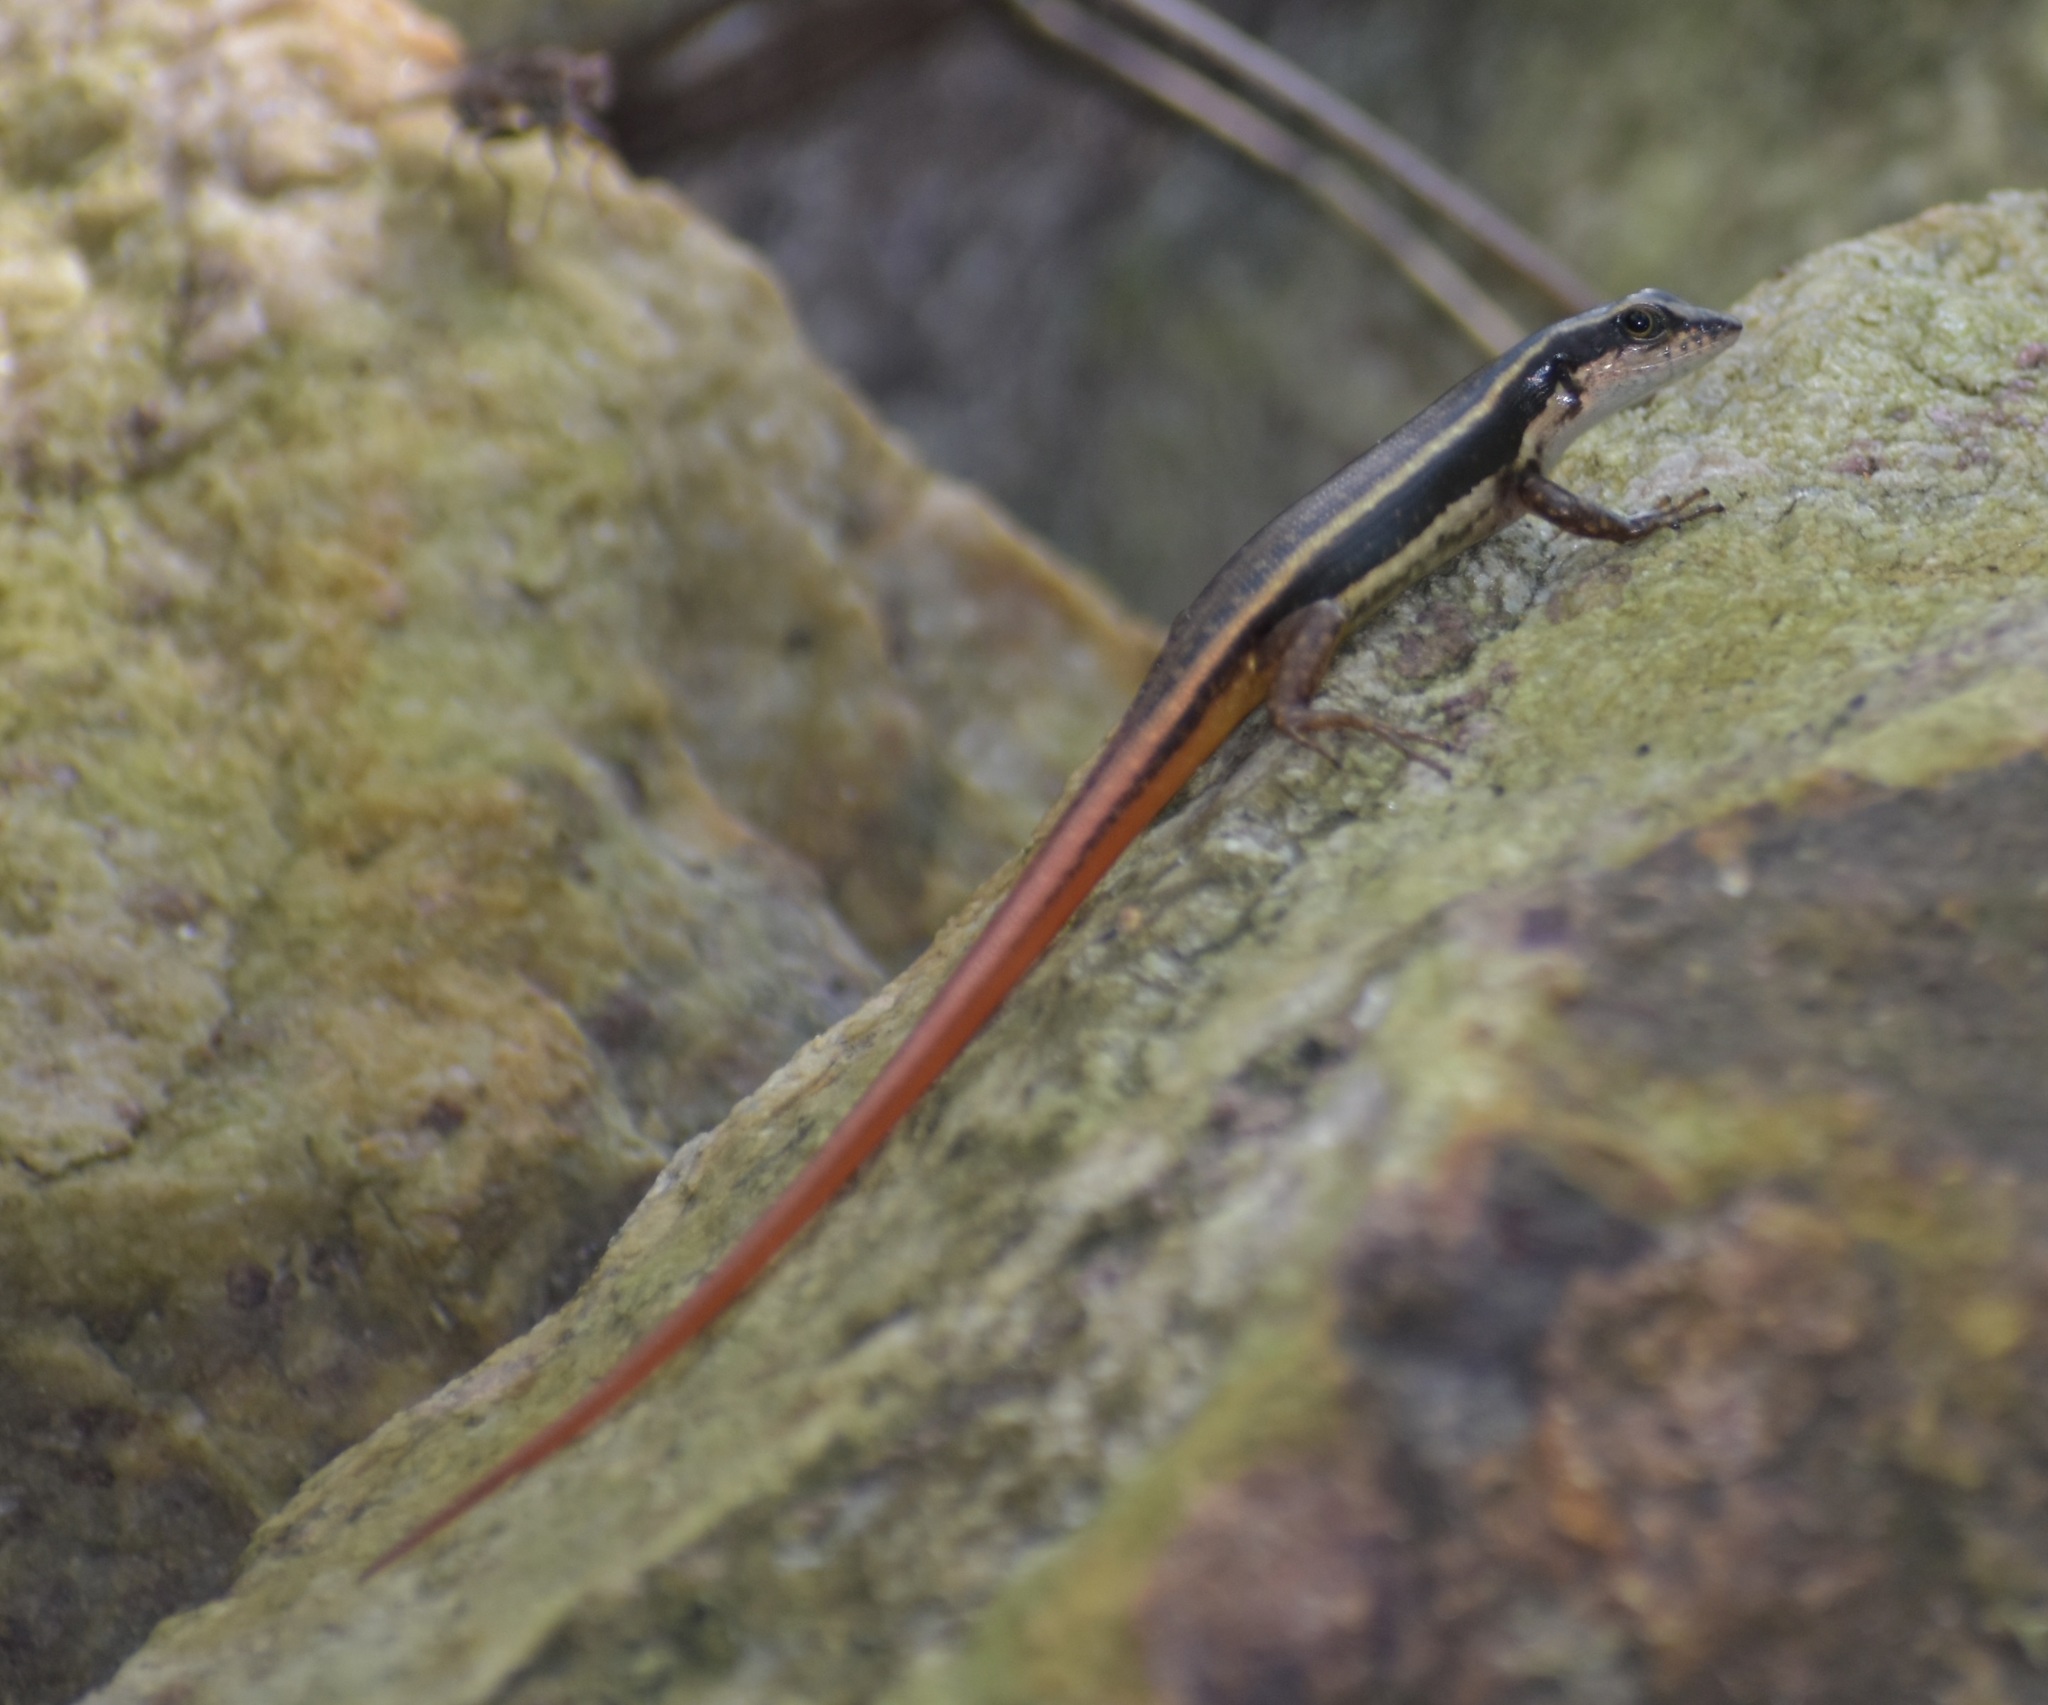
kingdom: Animalia
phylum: Chordata
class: Squamata
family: Scincidae
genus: Sphenomorphus
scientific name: Sphenomorphus dussumieri
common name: Dussumier's forest skink
